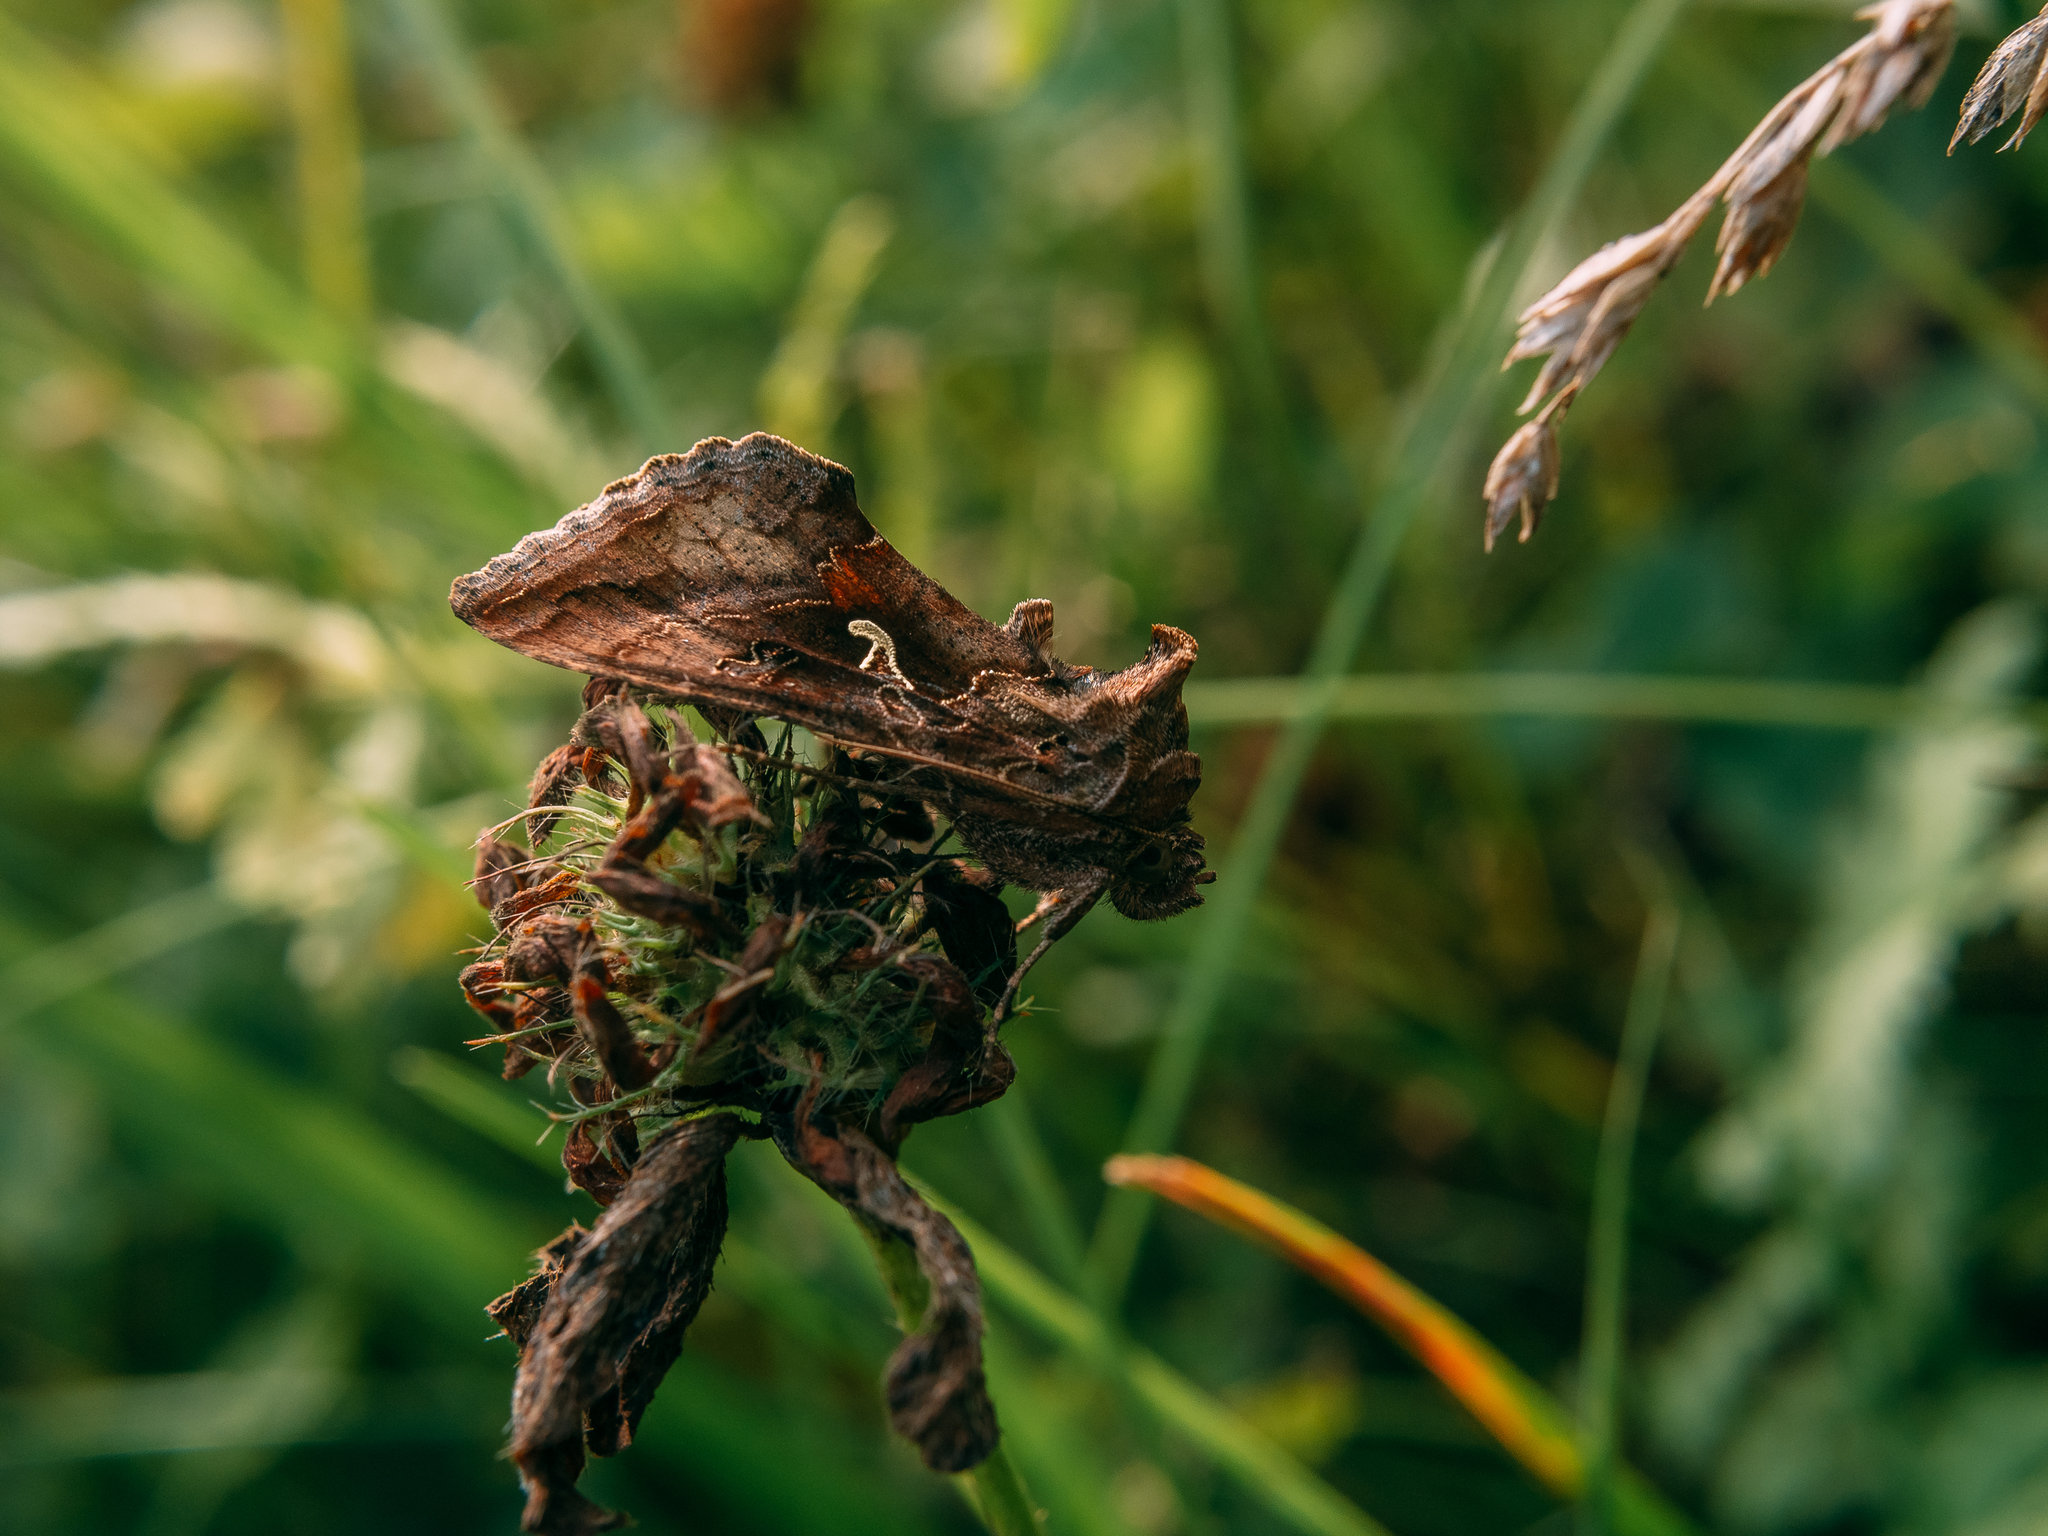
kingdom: Animalia
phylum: Arthropoda
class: Insecta
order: Lepidoptera
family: Noctuidae
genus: Autographa
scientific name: Autographa gamma
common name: Silver y
